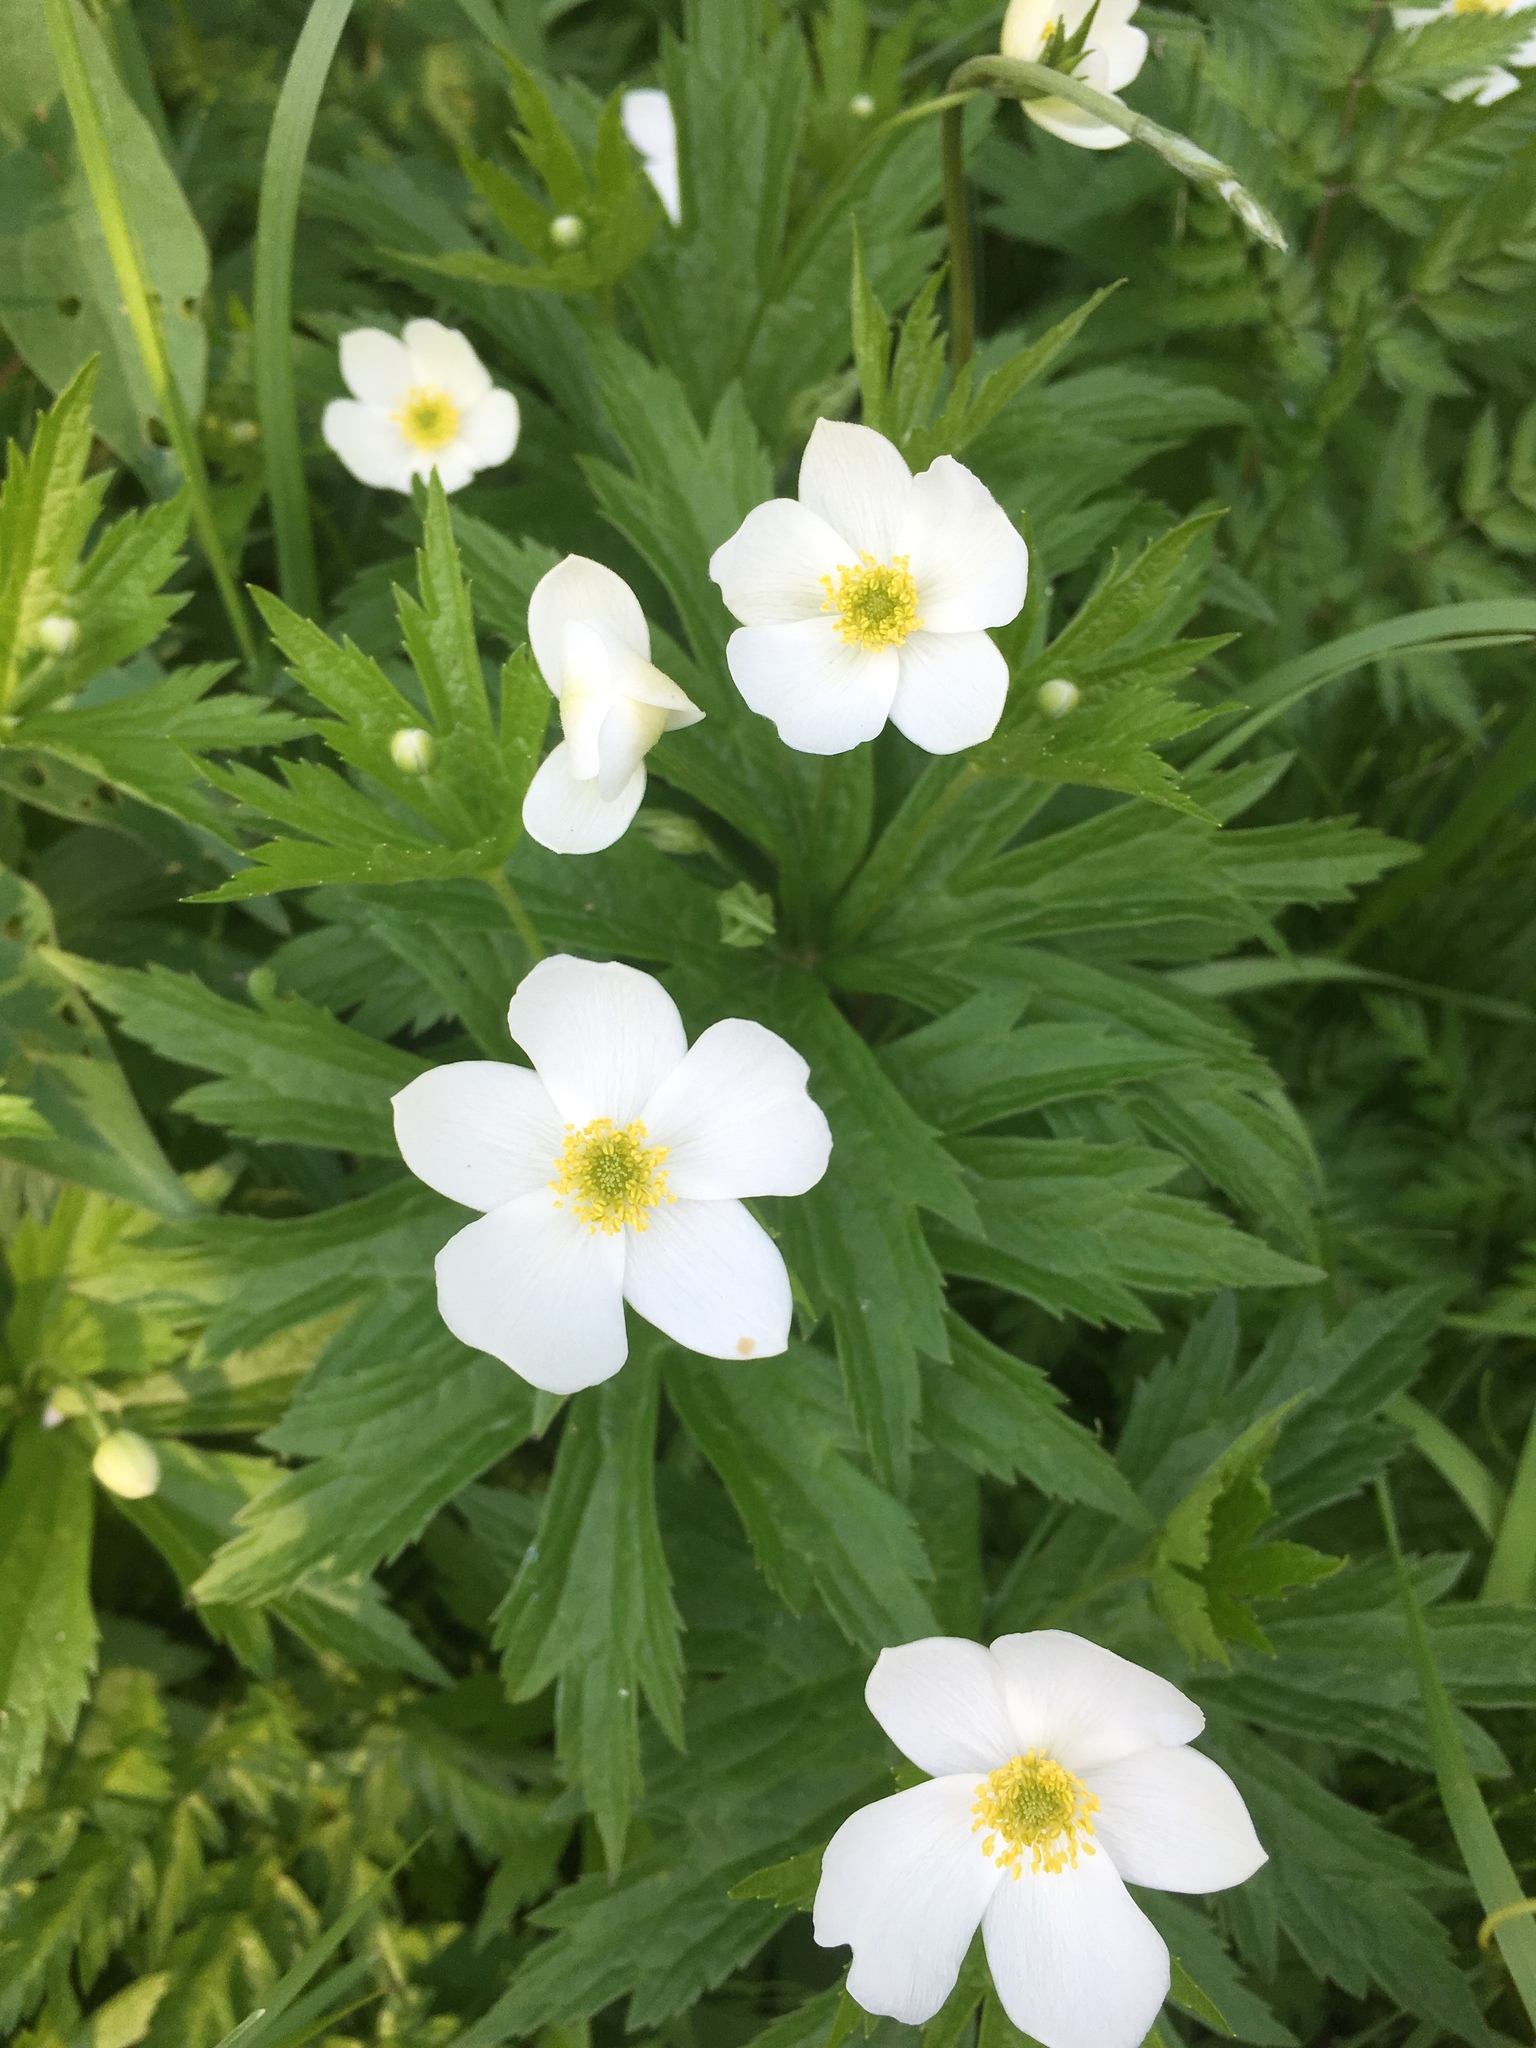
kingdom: Plantae
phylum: Tracheophyta
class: Magnoliopsida
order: Ranunculales
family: Ranunculaceae
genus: Anemonastrum
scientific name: Anemonastrum canadense
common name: Canada anemone
